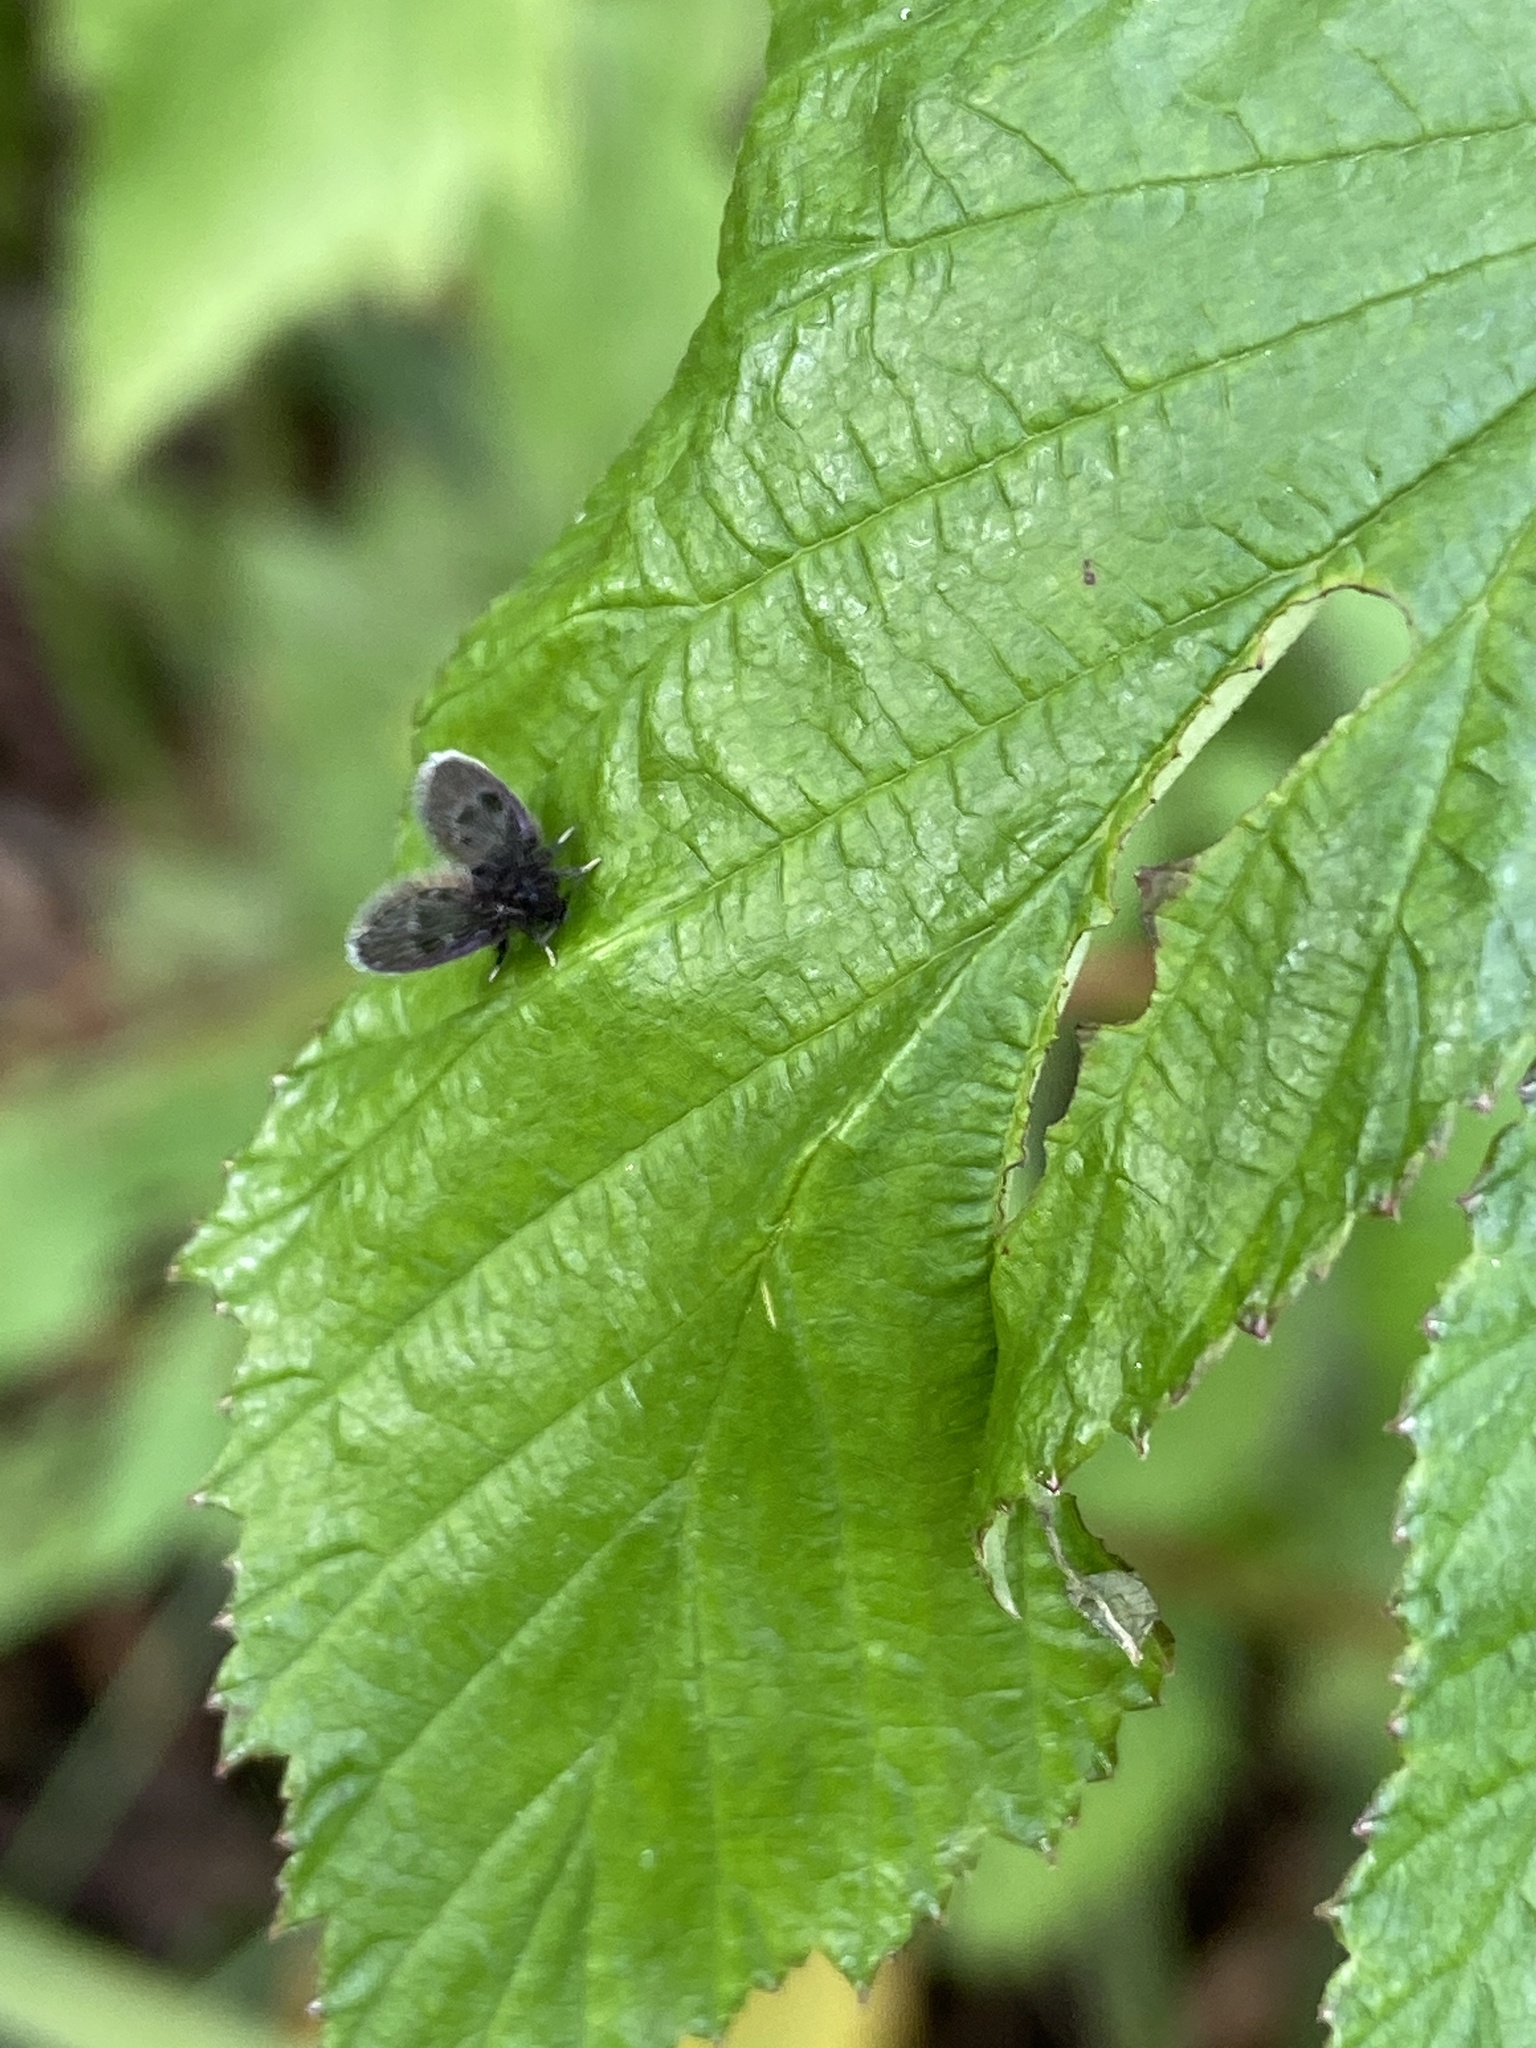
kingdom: Animalia
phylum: Arthropoda
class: Insecta
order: Diptera
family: Psychodidae
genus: Peripsychoda
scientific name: Peripsychoda auriculata
